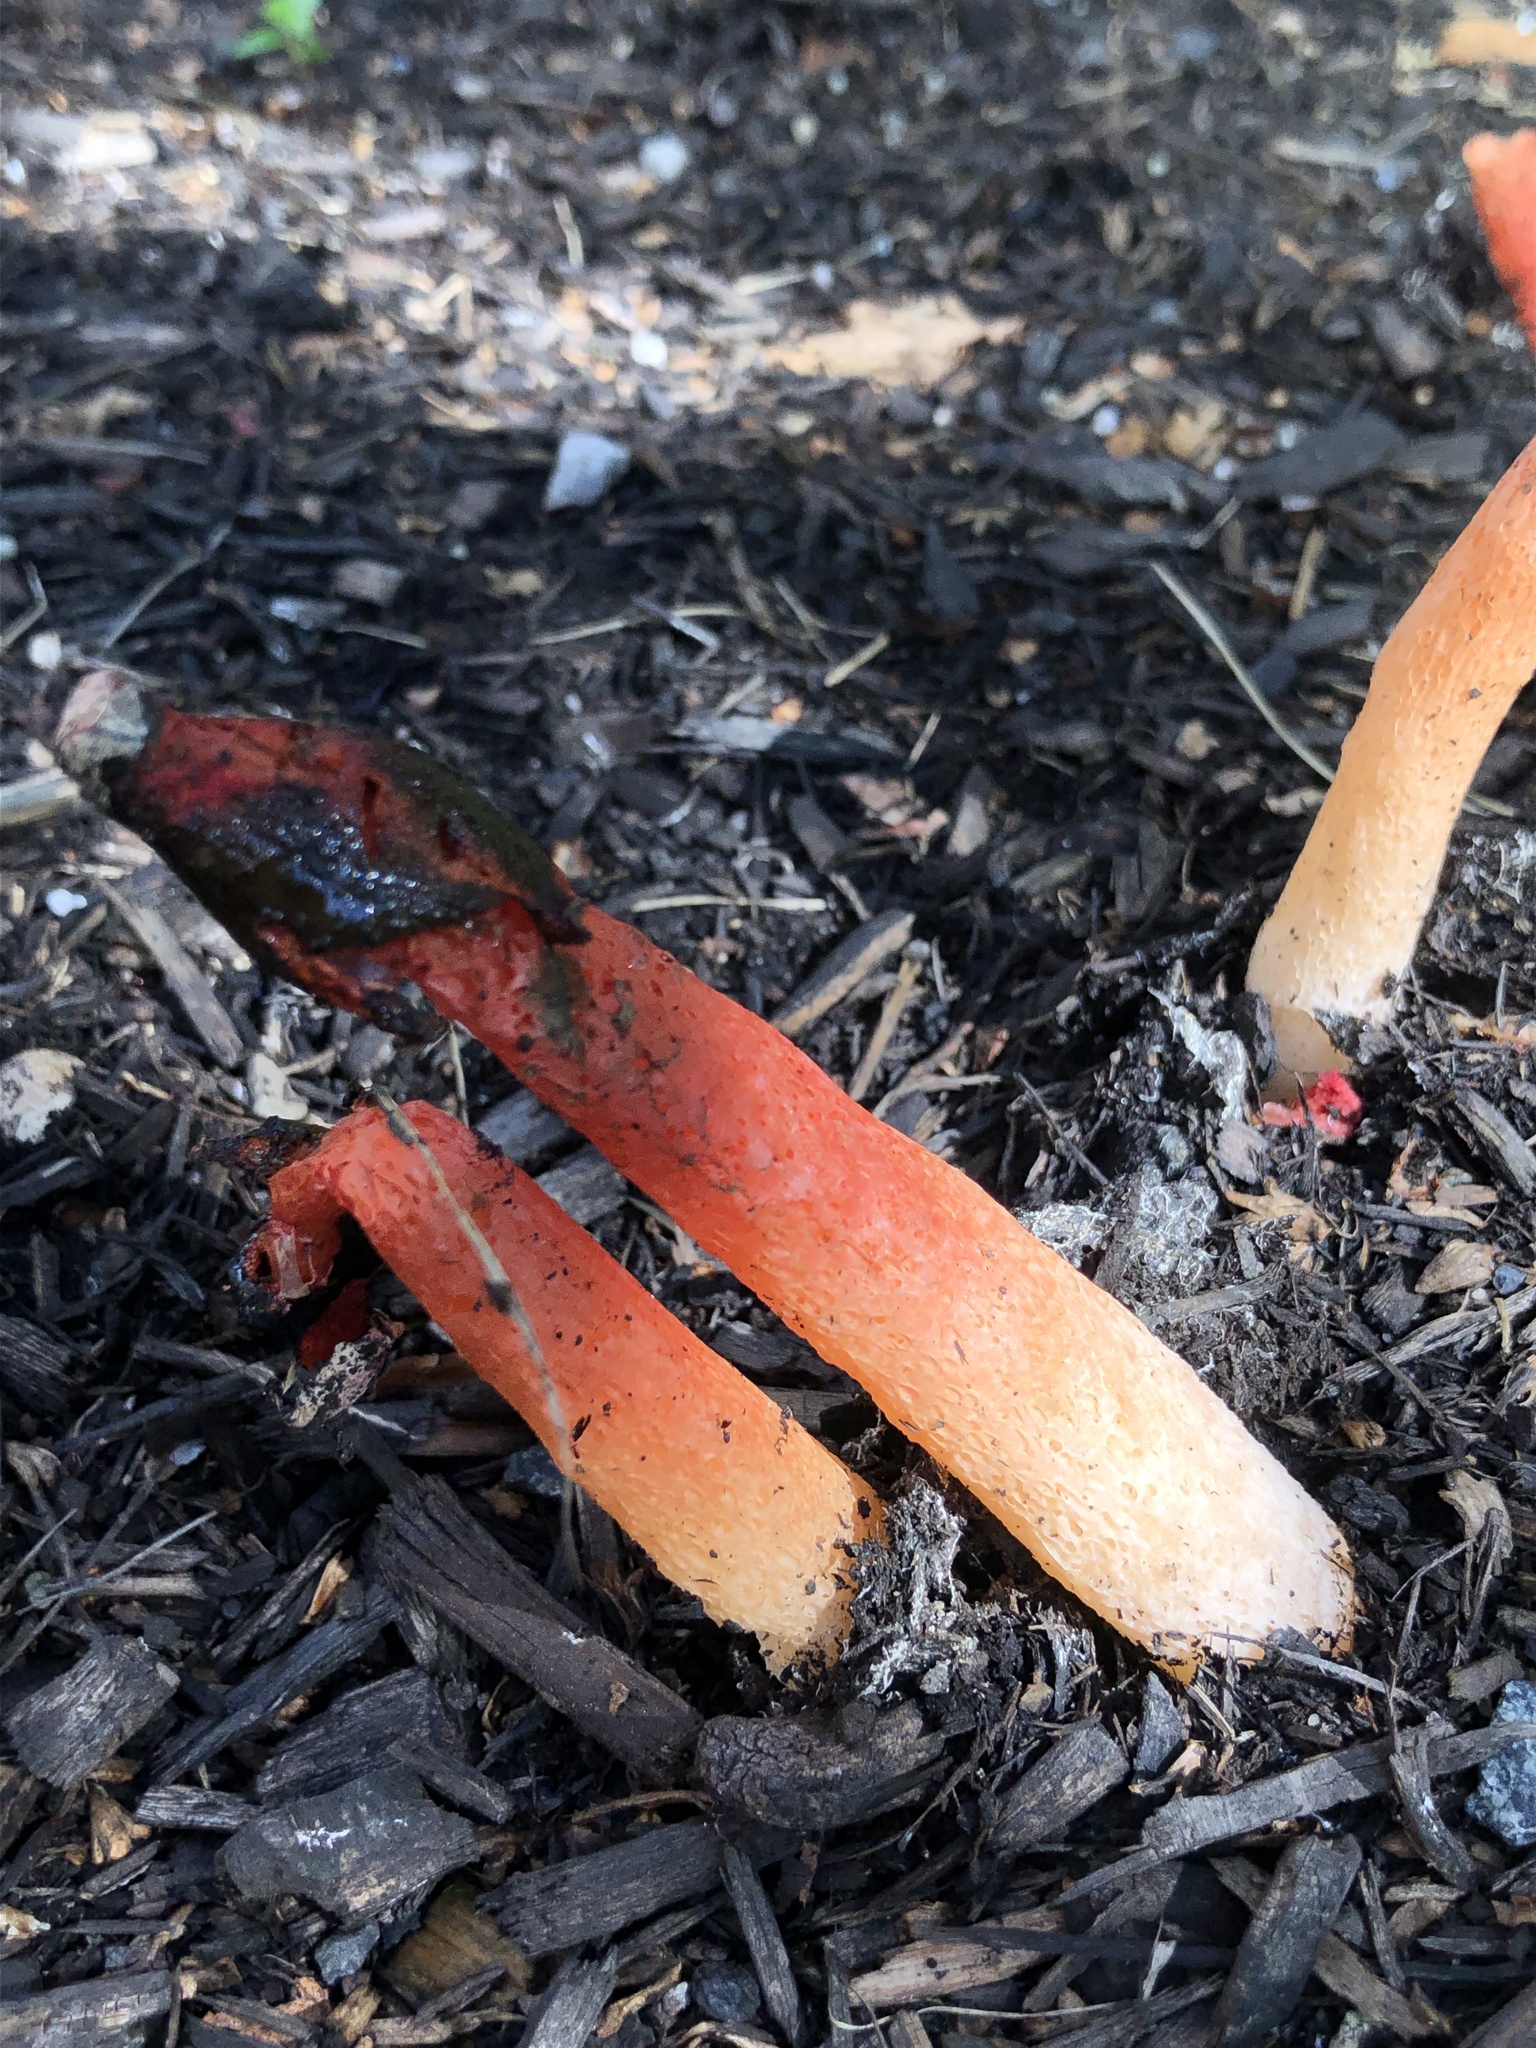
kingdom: Fungi
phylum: Basidiomycota
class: Agaricomycetes
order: Phallales
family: Phallaceae
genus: Phallus
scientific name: Phallus rugulosus
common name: Wrinkly stinkhorn
